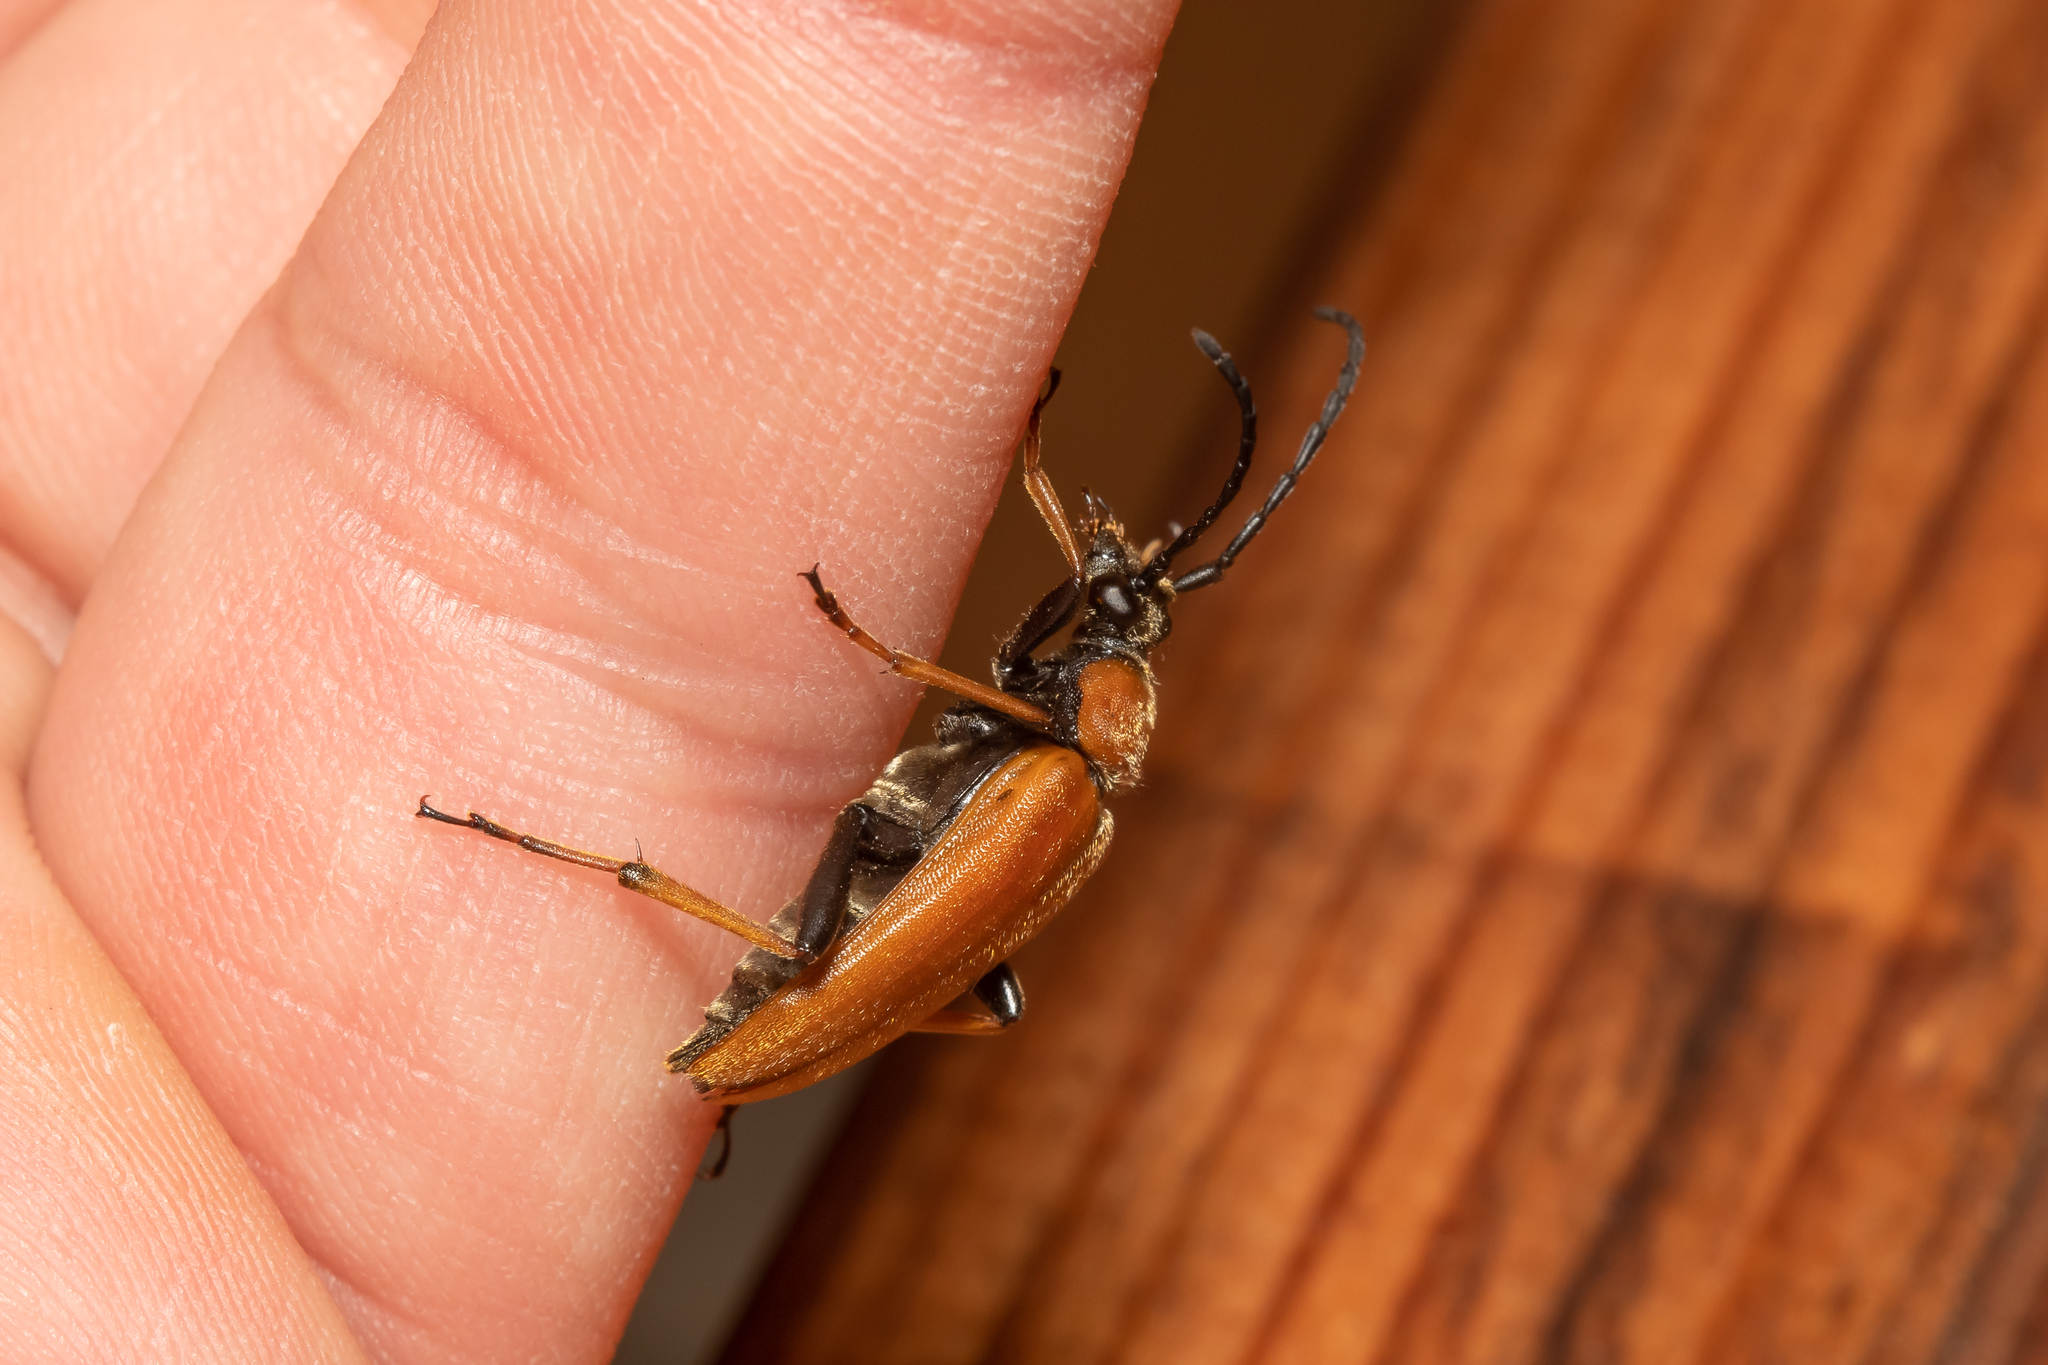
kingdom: Animalia
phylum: Arthropoda
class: Insecta
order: Coleoptera
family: Cerambycidae
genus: Stictoleptura
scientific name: Stictoleptura rubra
